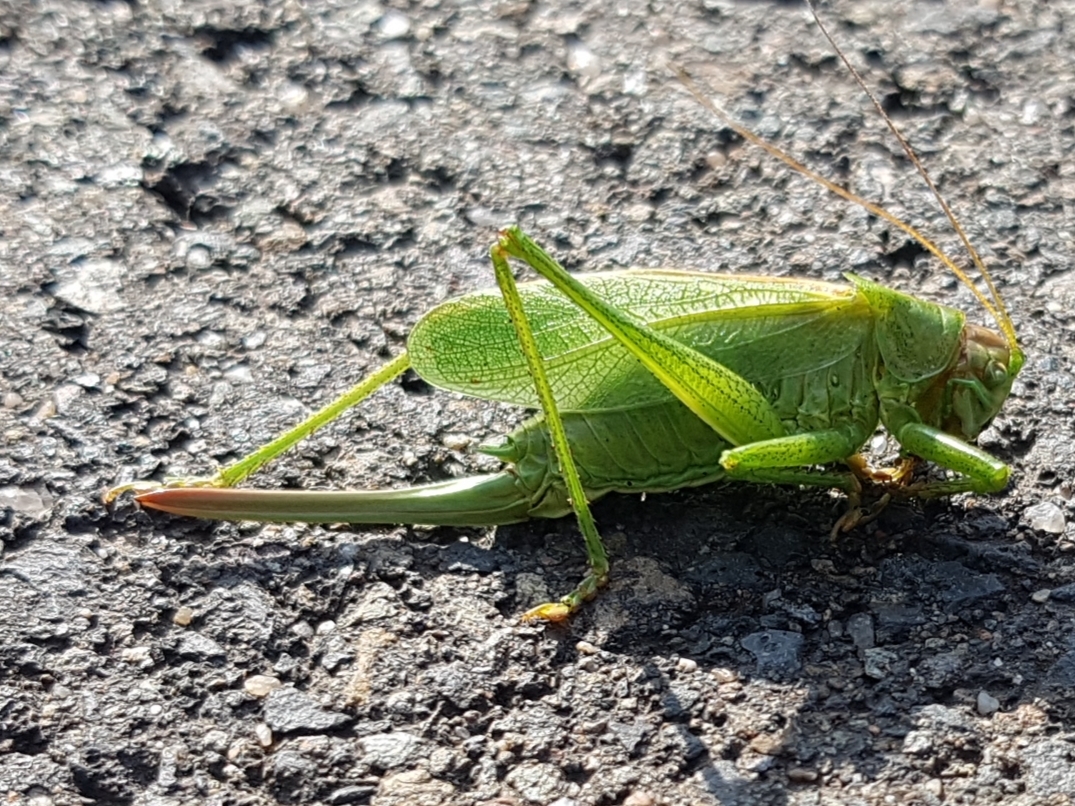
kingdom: Animalia
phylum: Arthropoda
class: Insecta
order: Orthoptera
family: Tettigoniidae
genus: Tettigonia
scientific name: Tettigonia cantans
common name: Upland green bush-cricket
